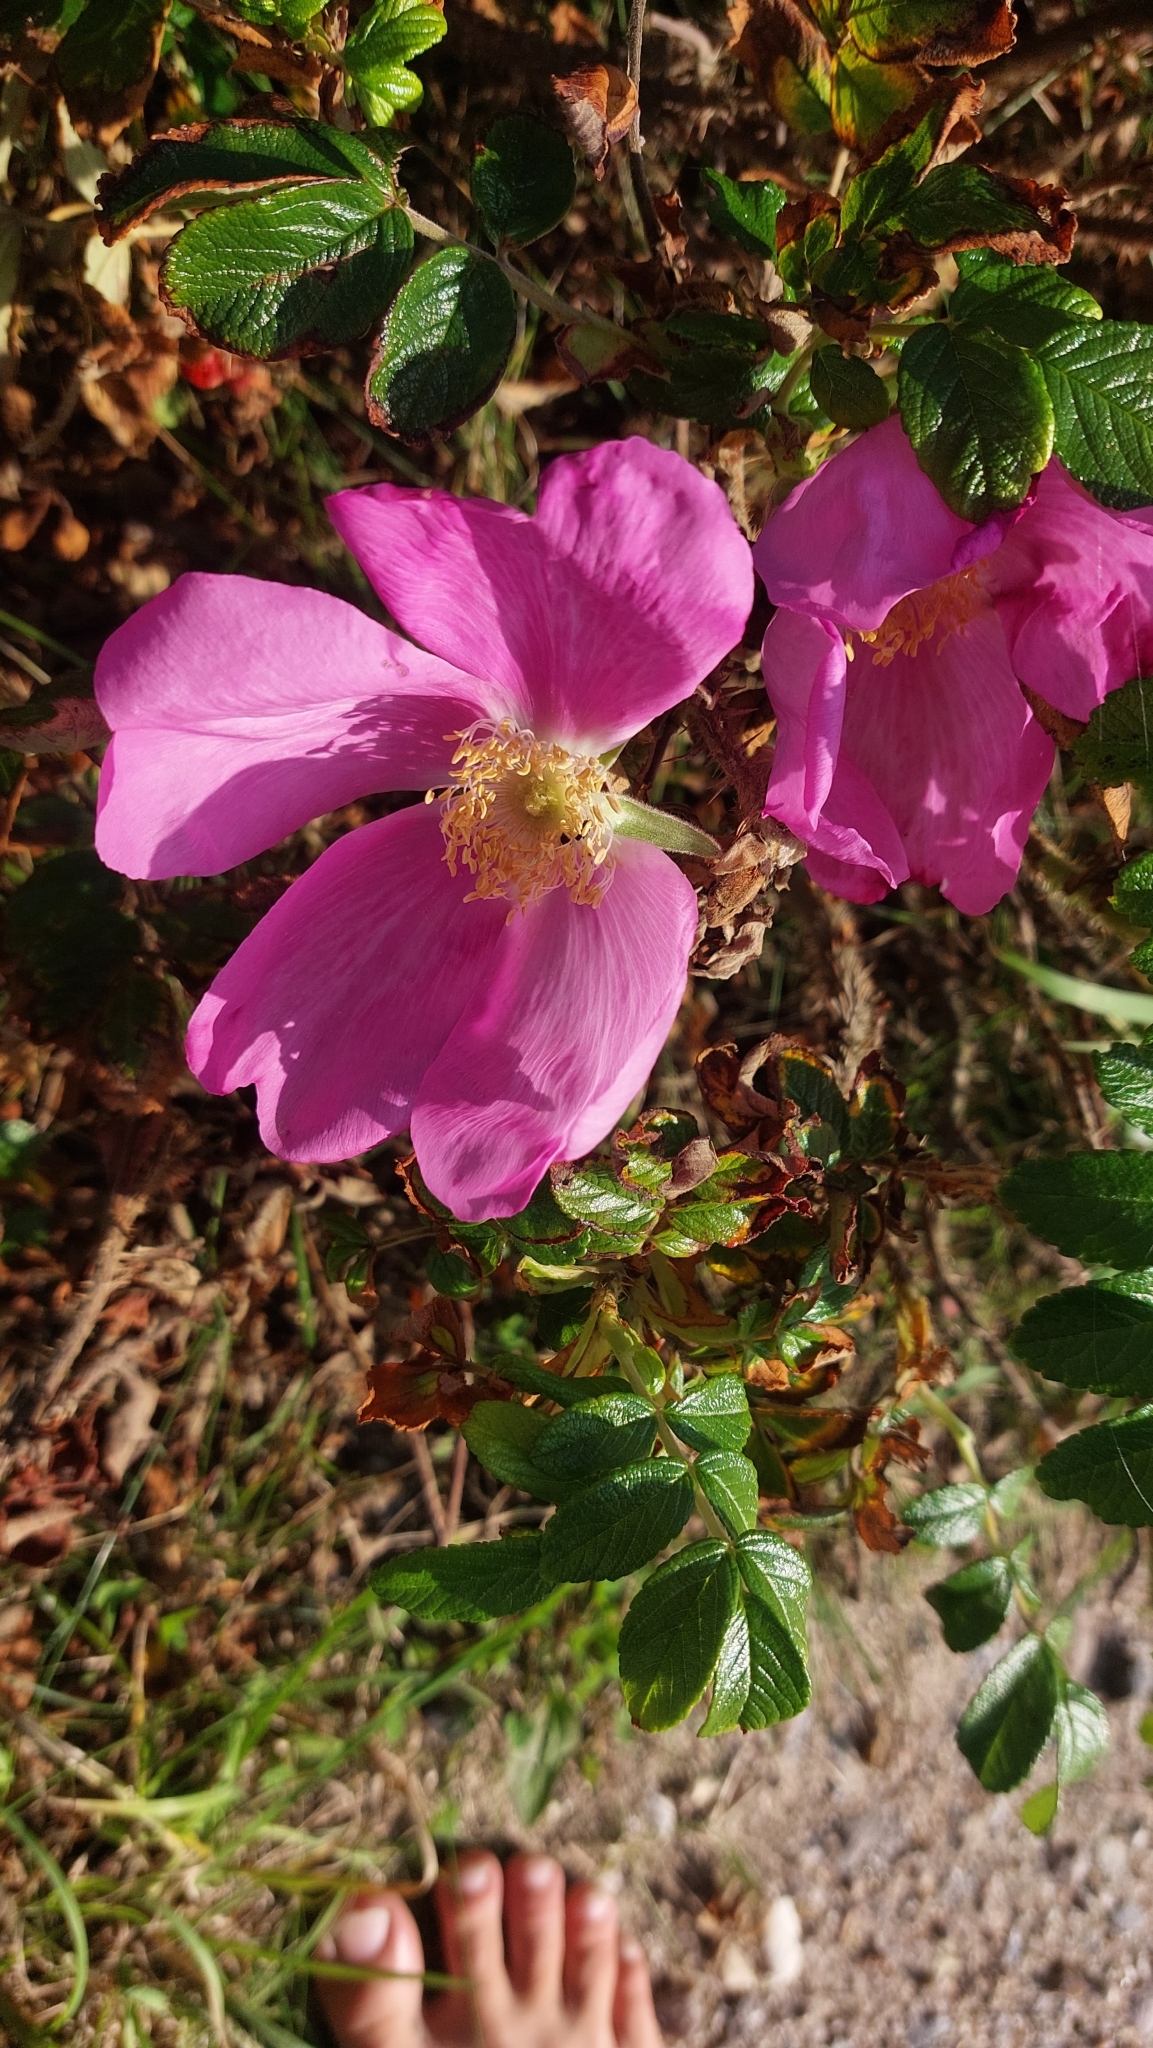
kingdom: Plantae
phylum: Tracheophyta
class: Magnoliopsida
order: Rosales
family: Rosaceae
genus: Rosa
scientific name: Rosa rugosa
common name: Japanese rose
